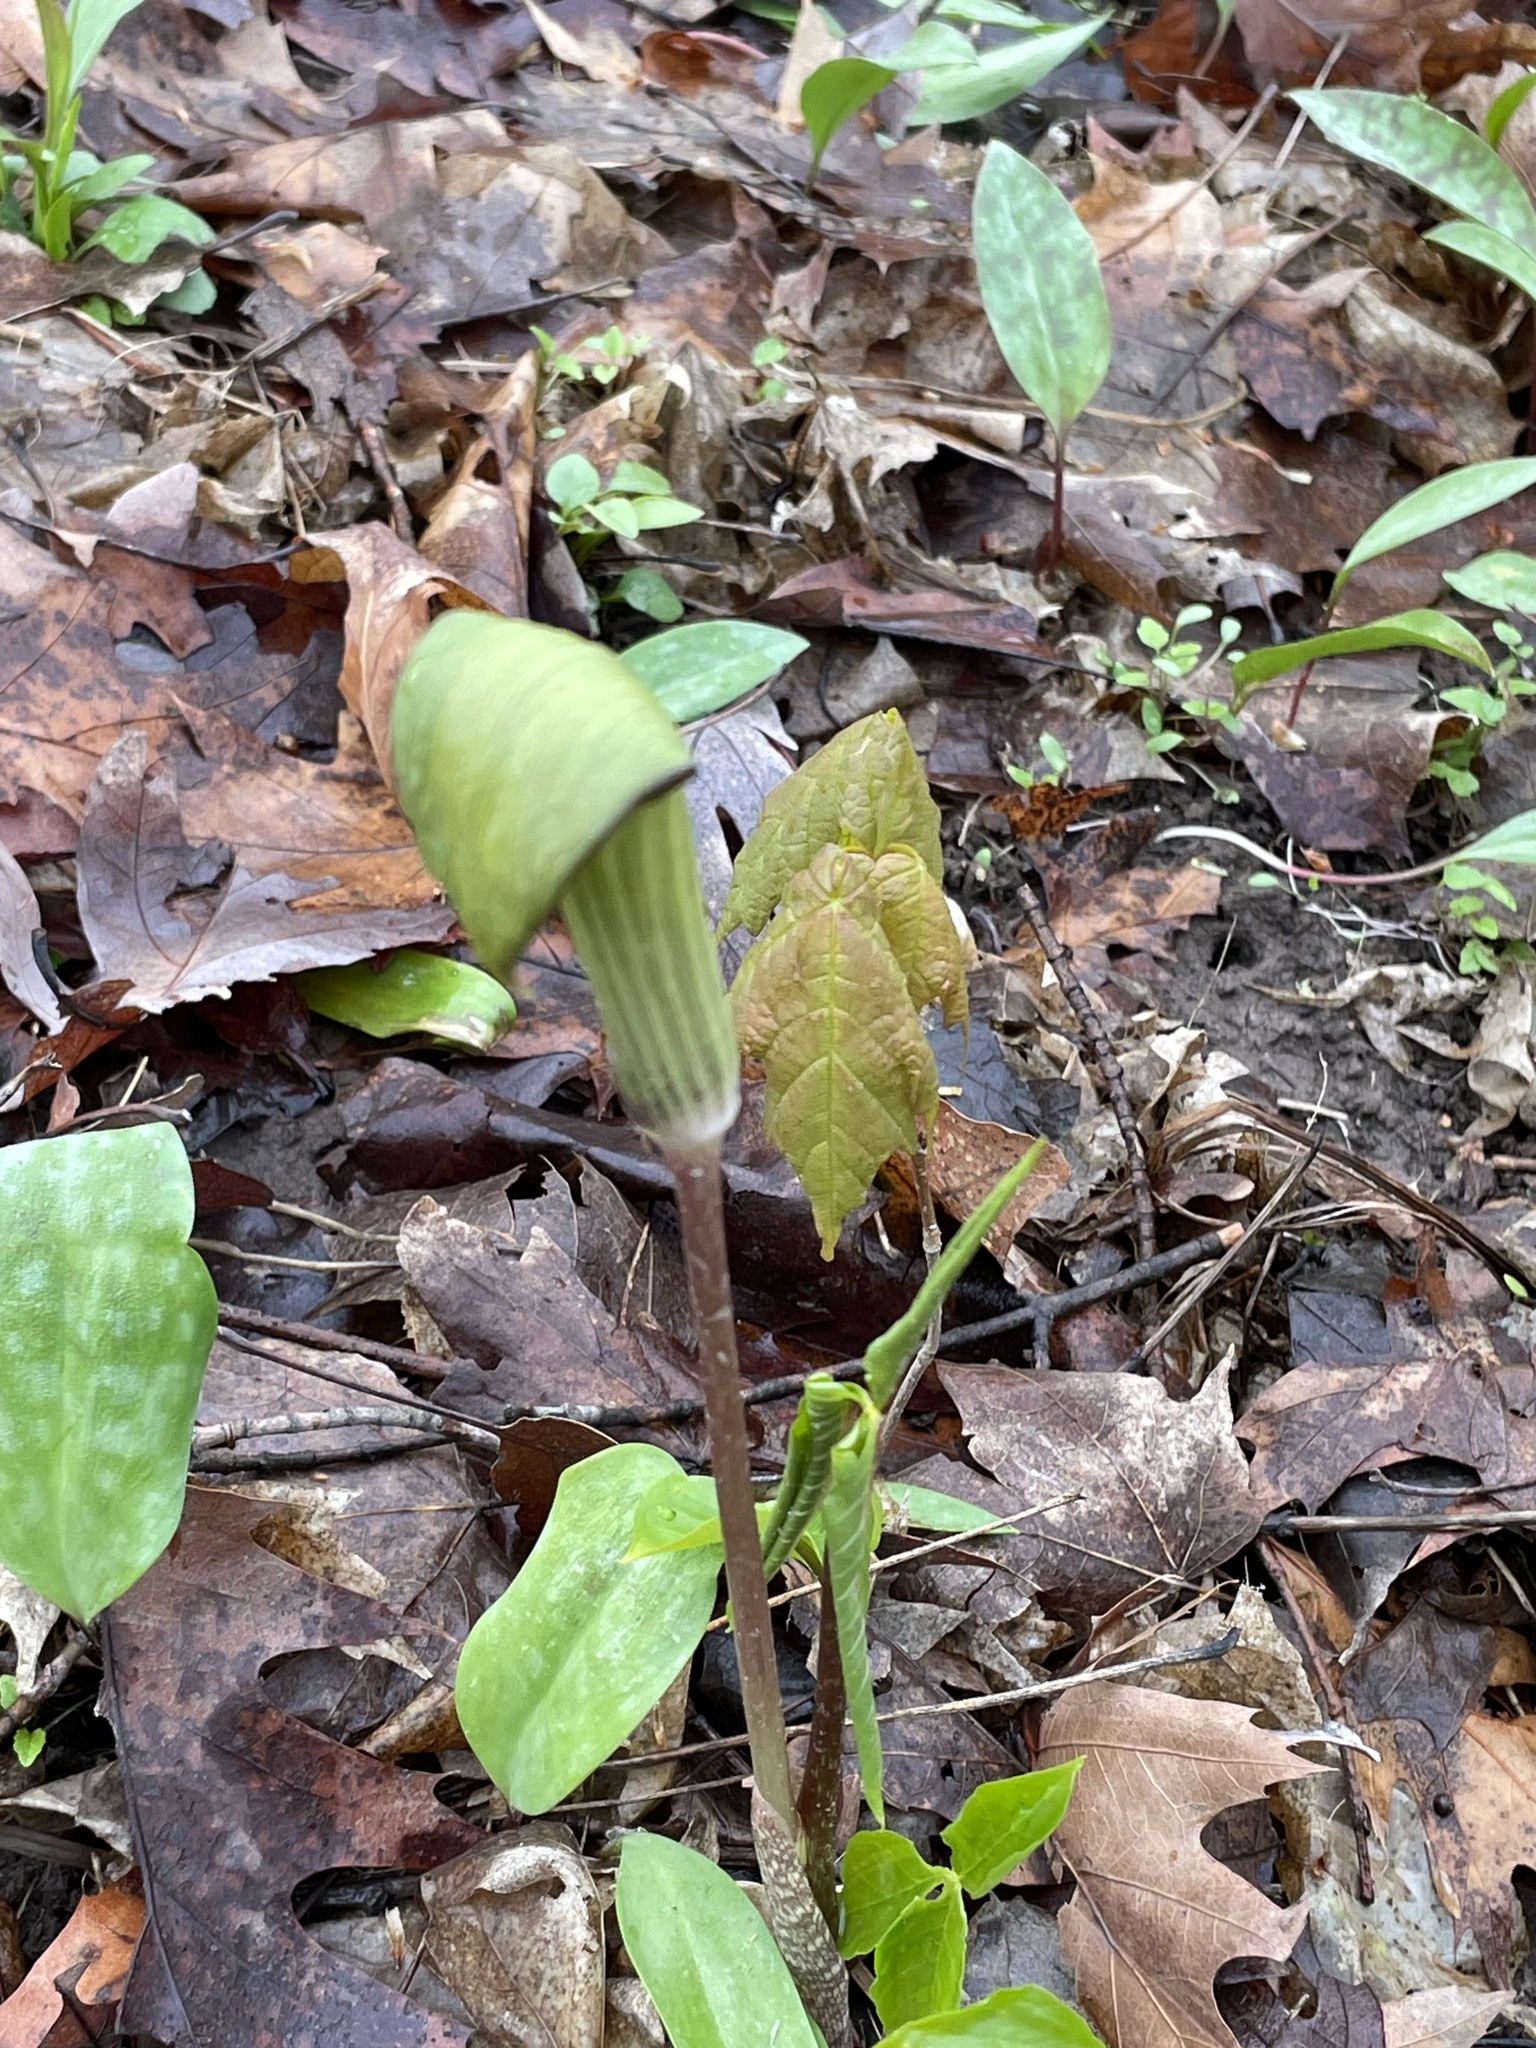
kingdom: Plantae
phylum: Tracheophyta
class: Liliopsida
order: Alismatales
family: Araceae
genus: Arisaema
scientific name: Arisaema triphyllum
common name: Jack-in-the-pulpit
